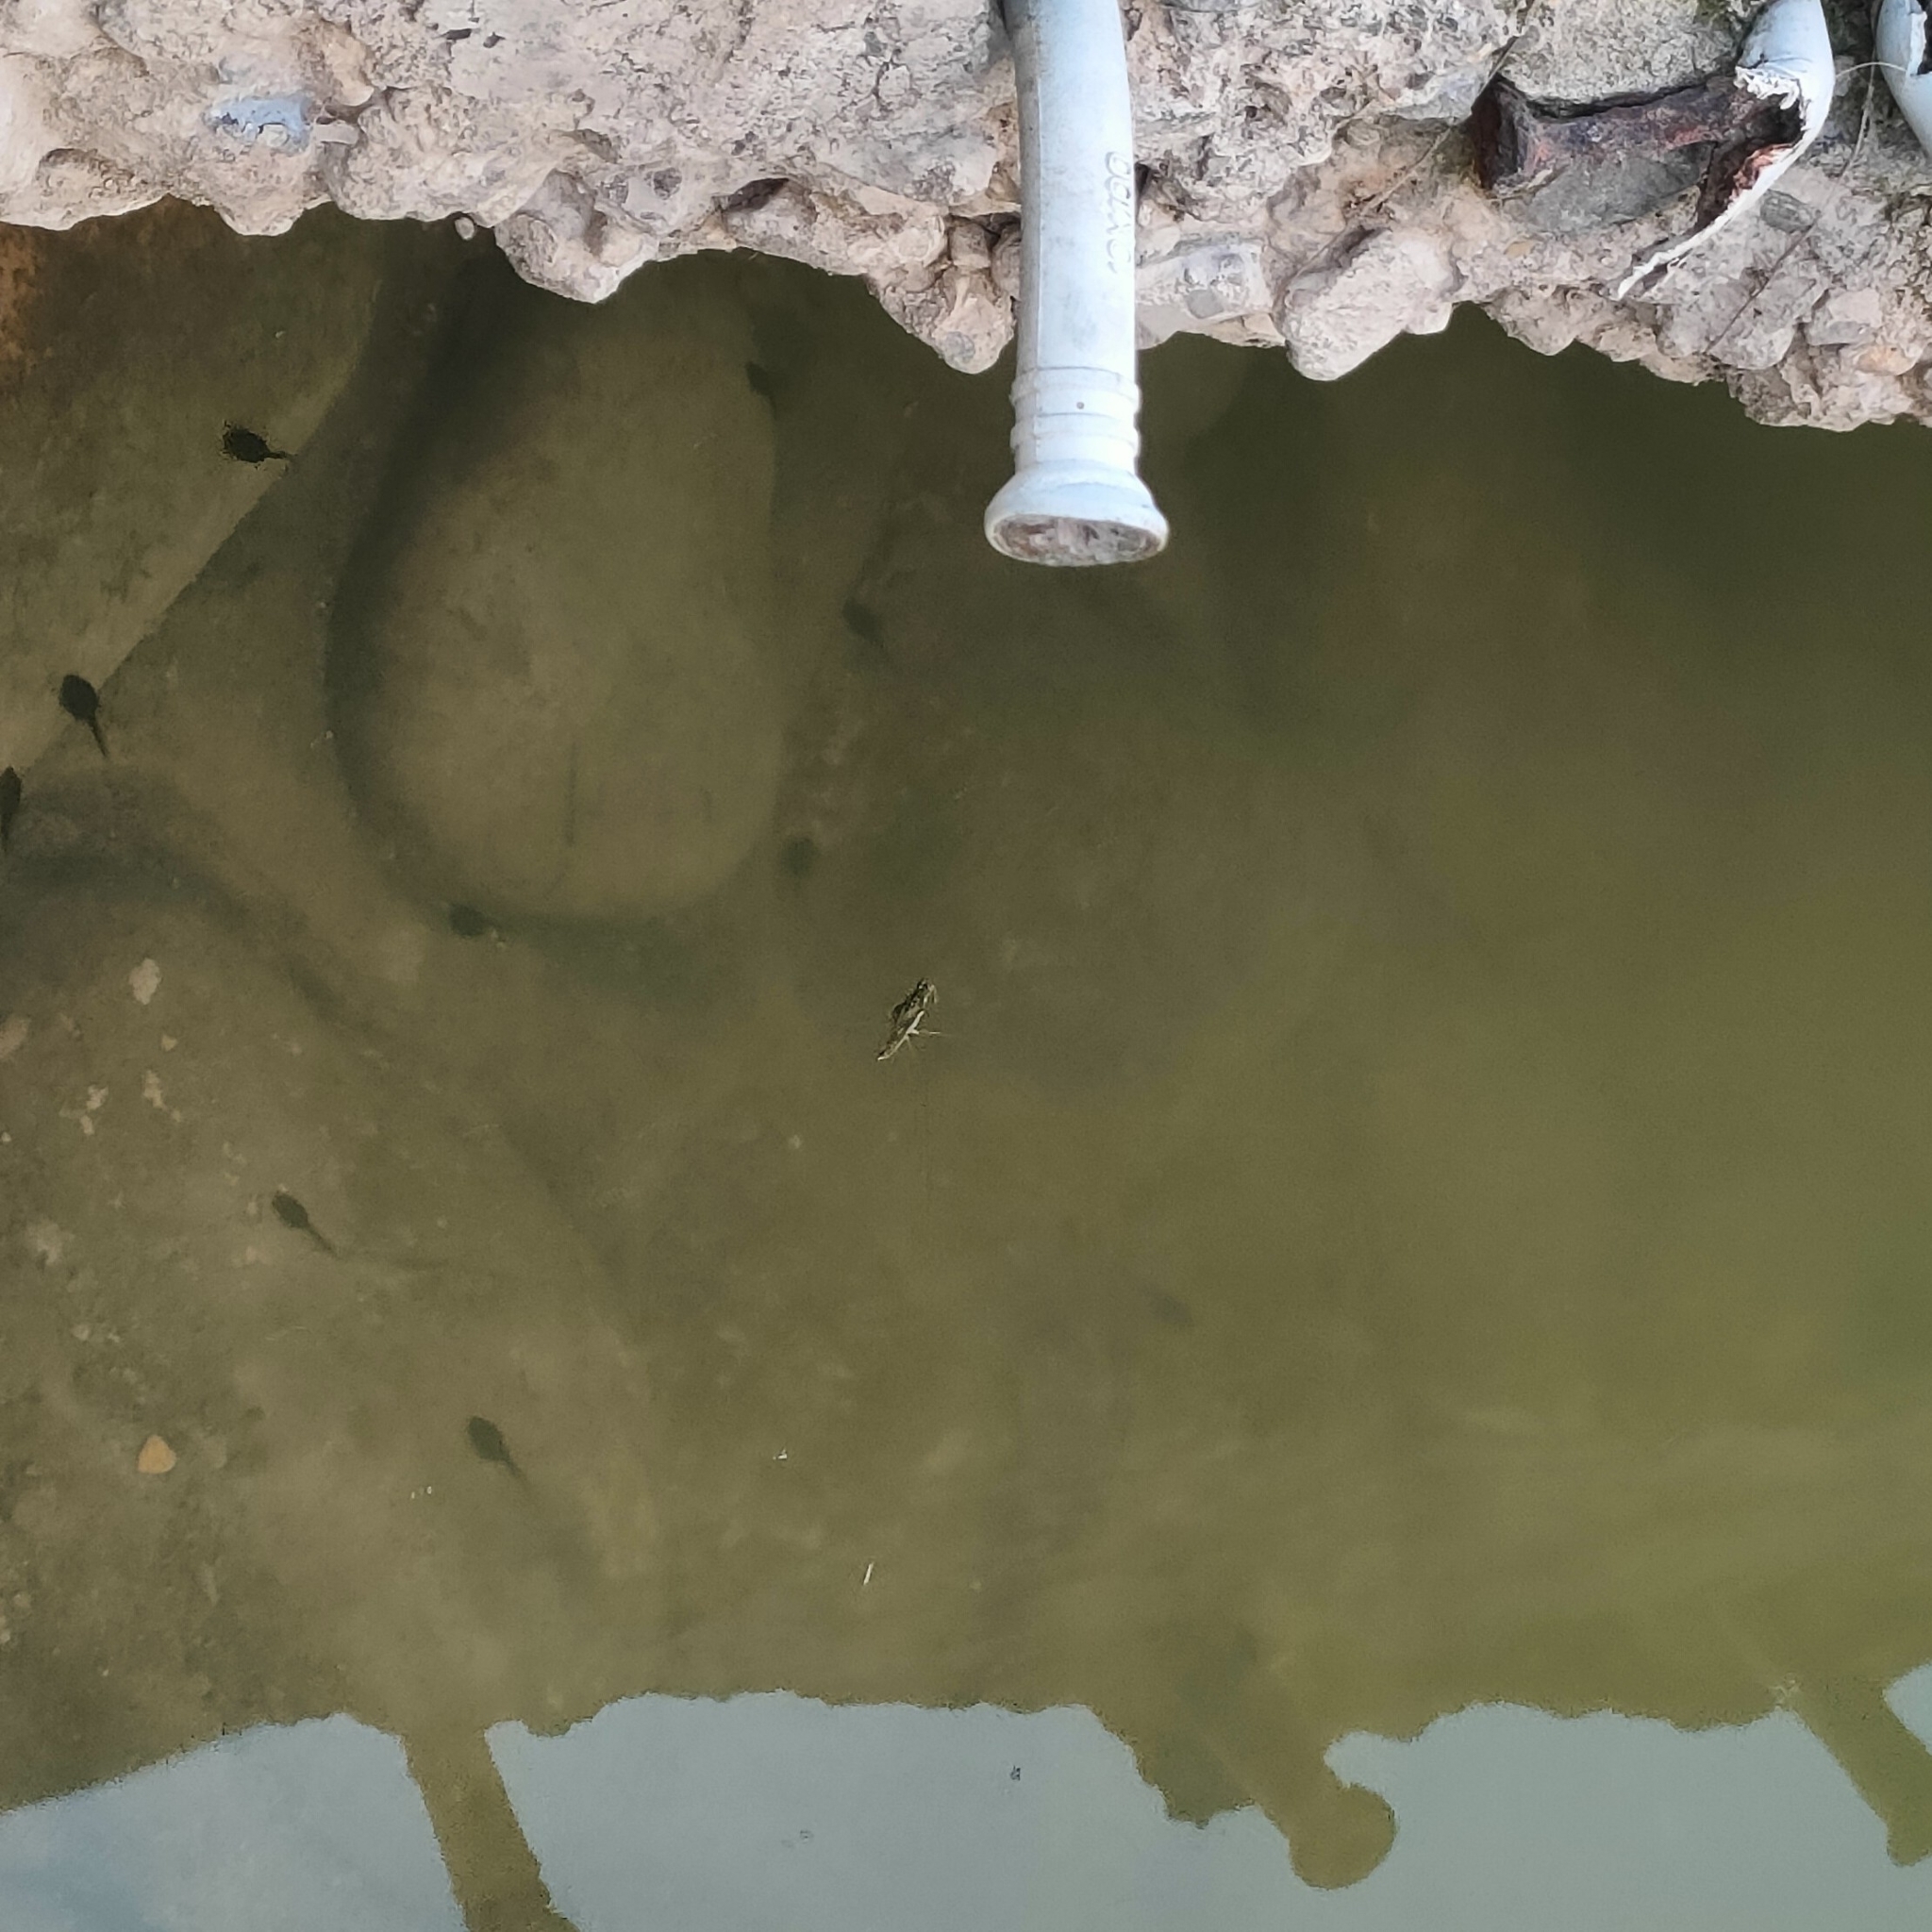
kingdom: Animalia
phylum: Arthropoda
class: Insecta
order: Hemiptera
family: Gerridae
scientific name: Gerridae
